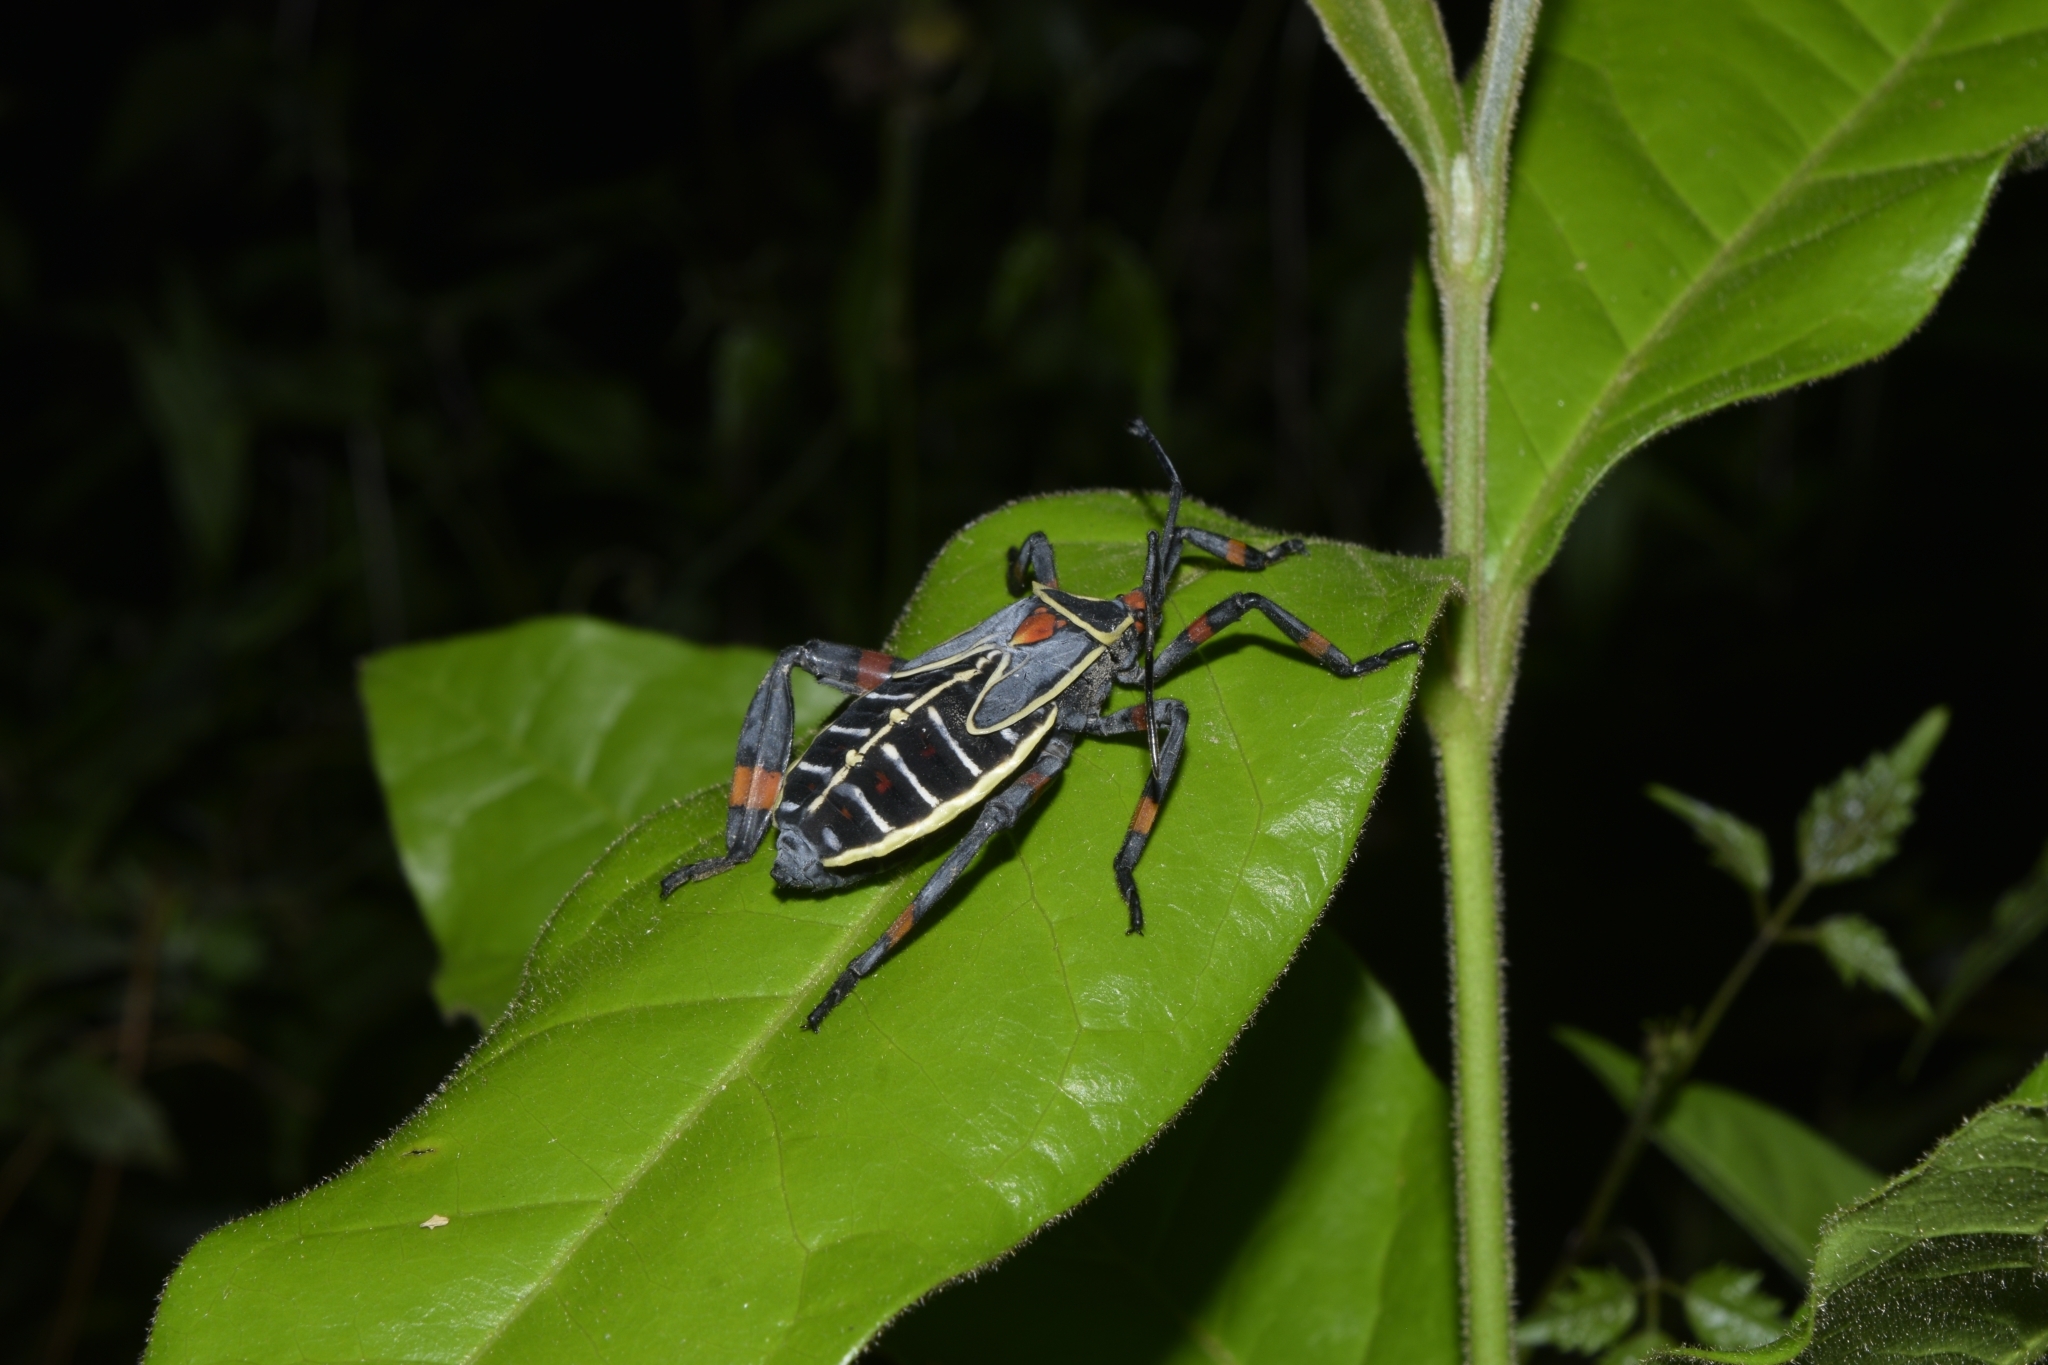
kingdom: Animalia
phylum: Arthropoda
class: Insecta
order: Hemiptera
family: Coreidae
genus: Thasus
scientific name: Thasus acutangulus
